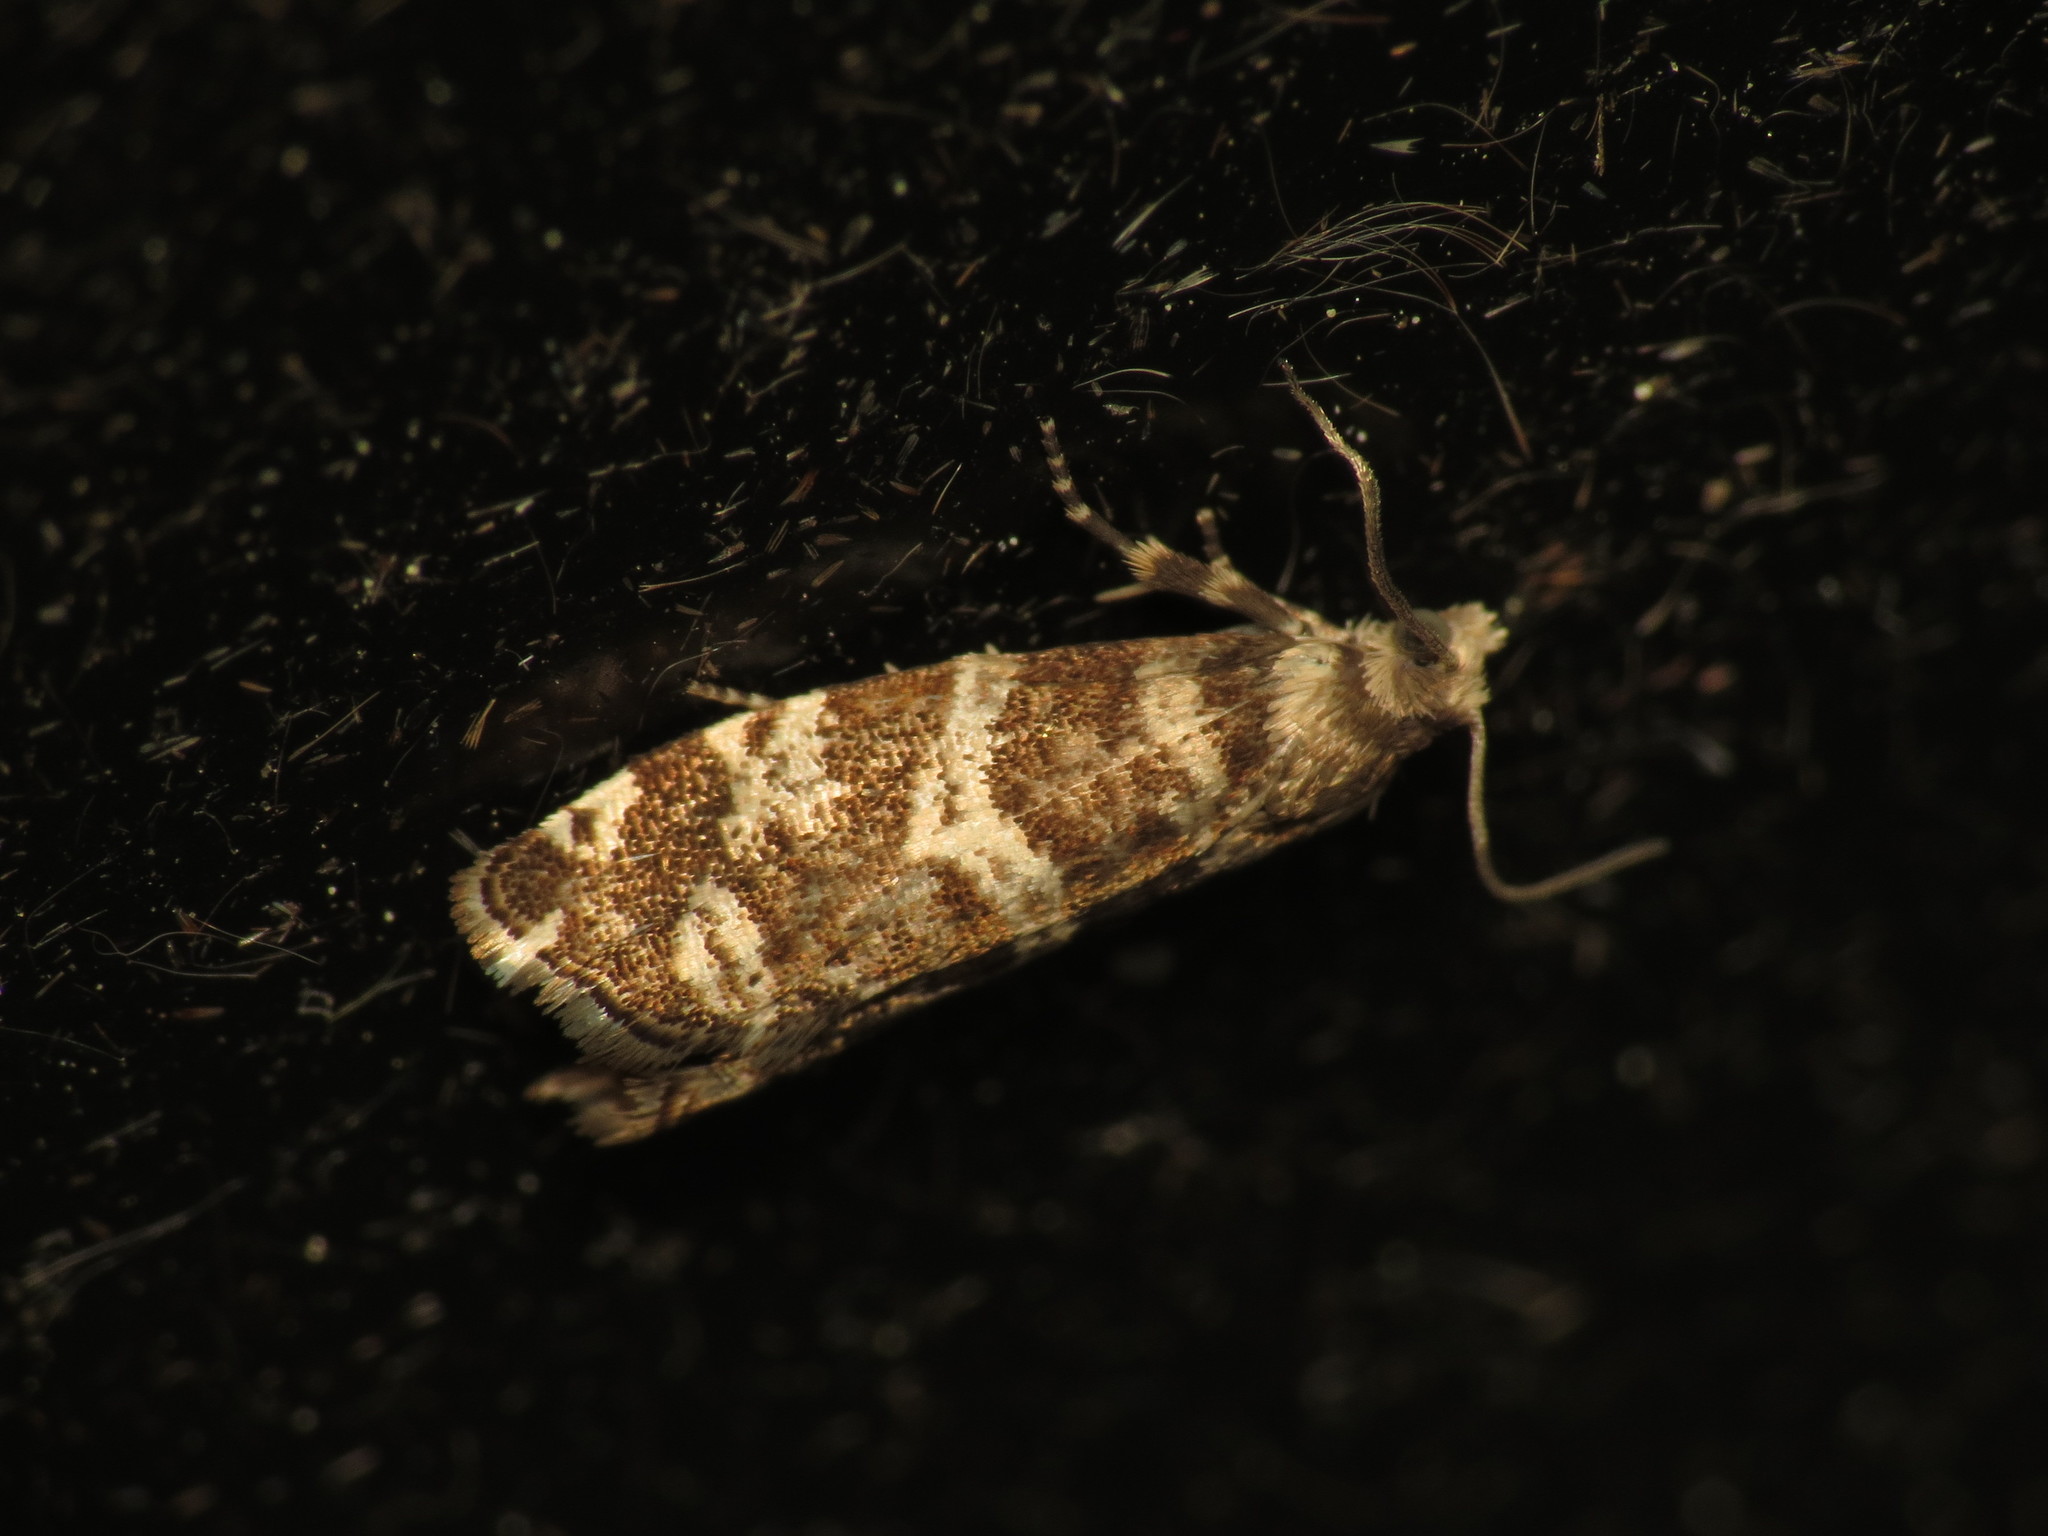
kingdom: Animalia
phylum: Arthropoda
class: Insecta
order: Lepidoptera
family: Tortricidae
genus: Epinotia
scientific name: Epinotia tedella
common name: Common spruce bell
